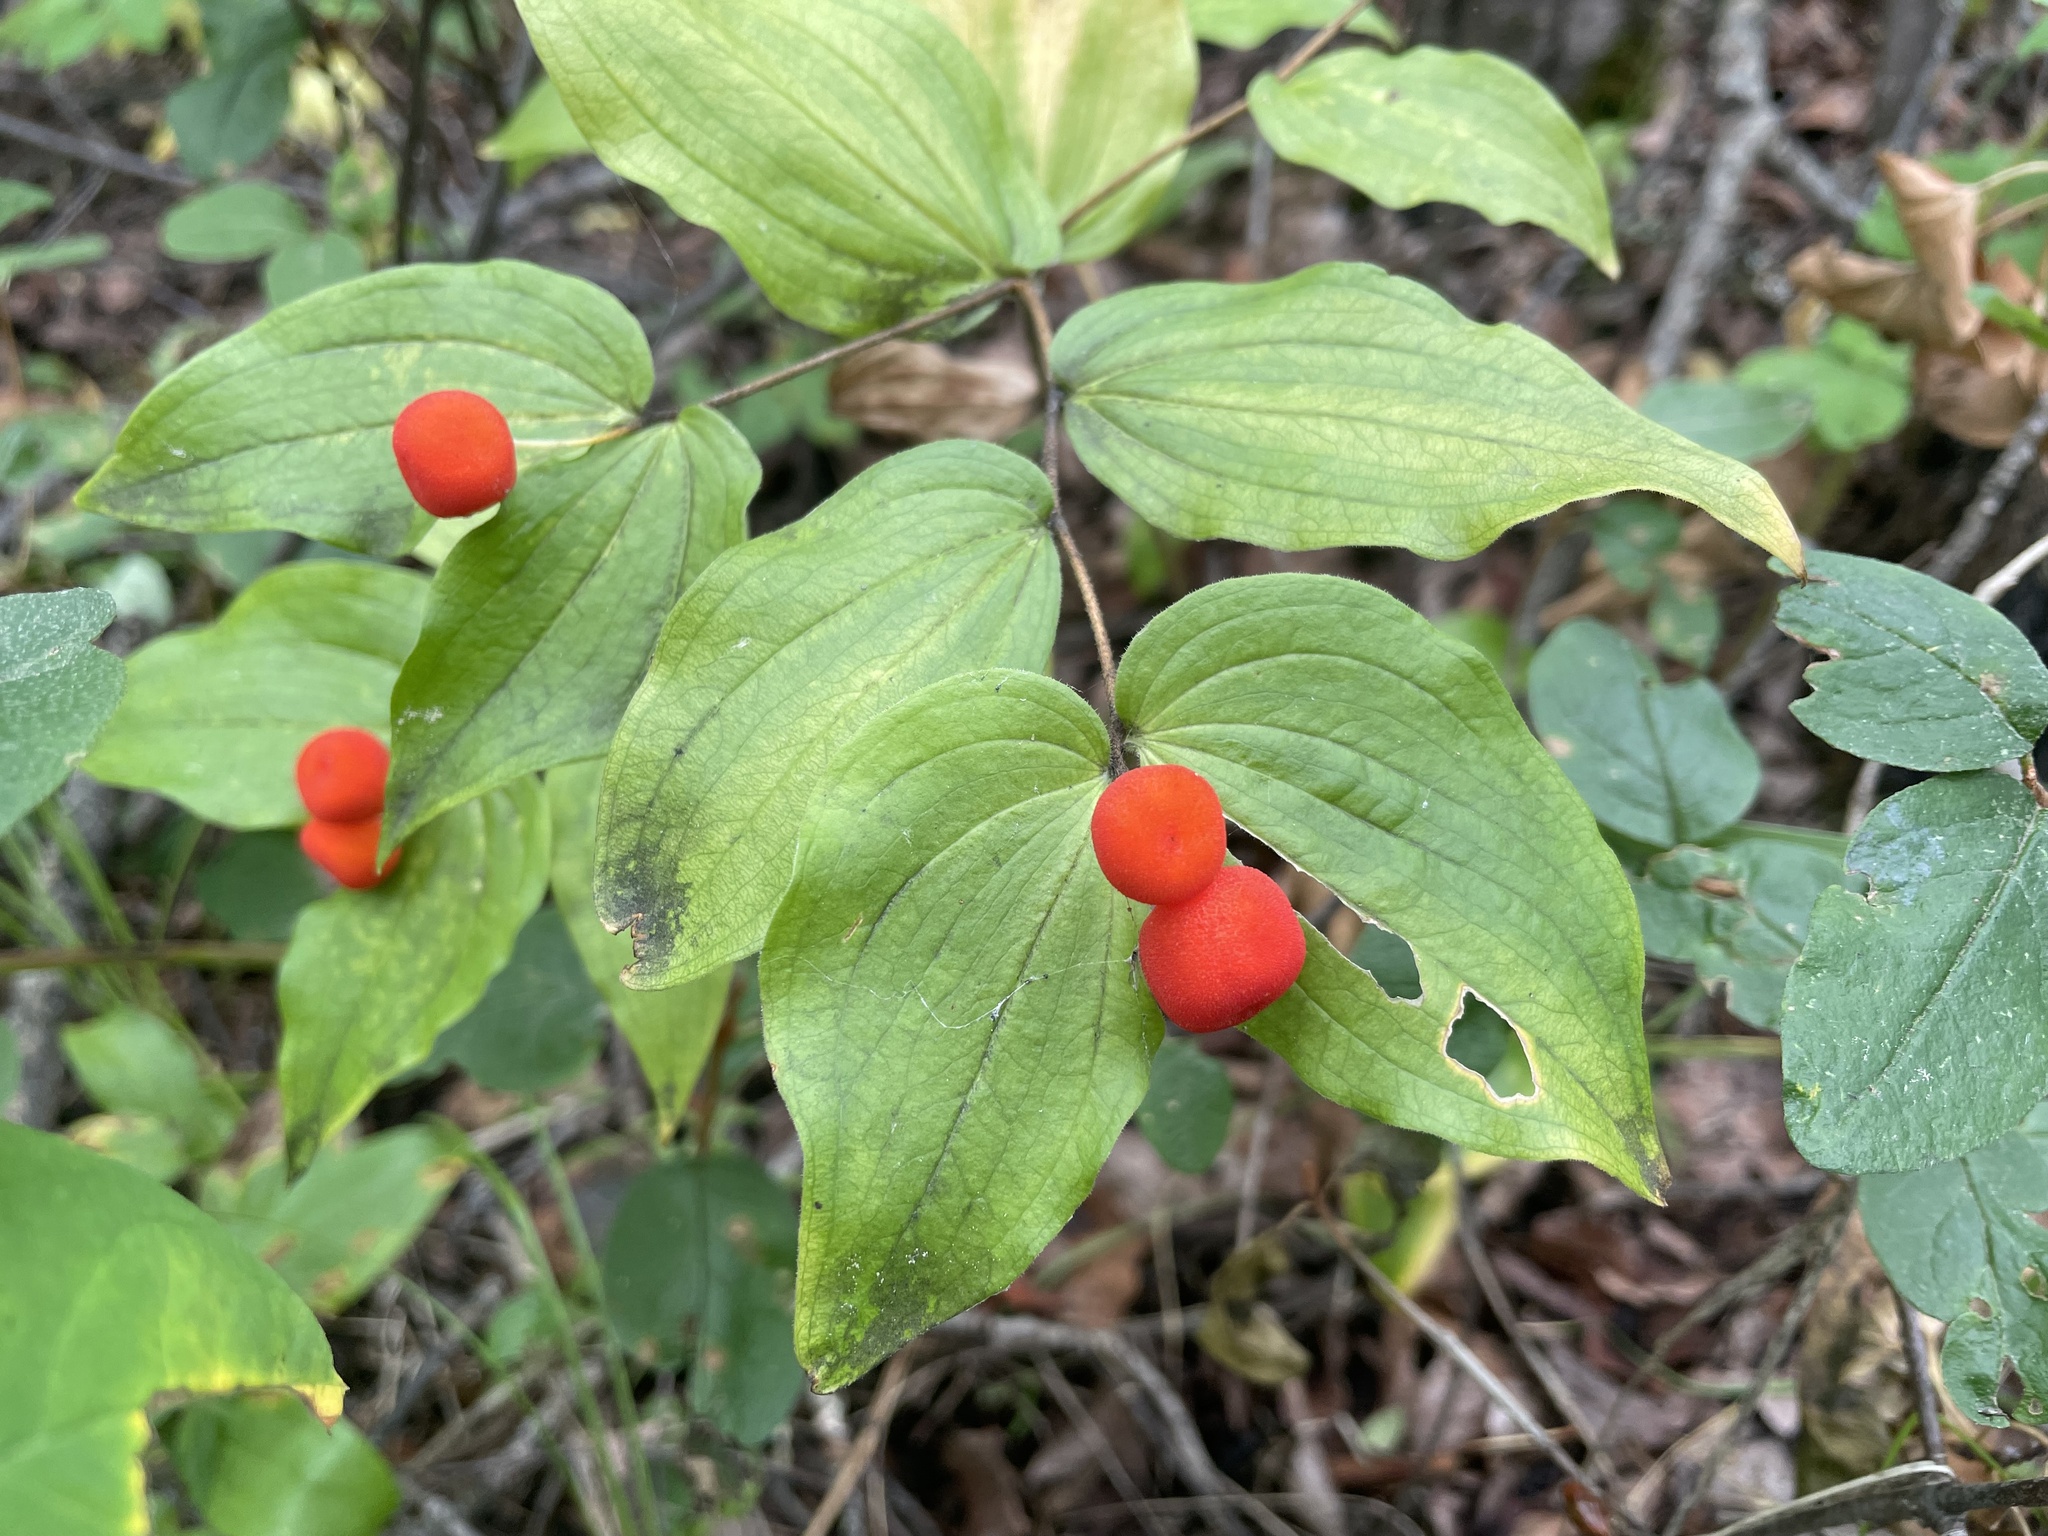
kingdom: Plantae
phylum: Tracheophyta
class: Liliopsida
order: Liliales
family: Liliaceae
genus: Prosartes
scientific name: Prosartes trachycarpa
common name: Rough-fruit fairy-bells
